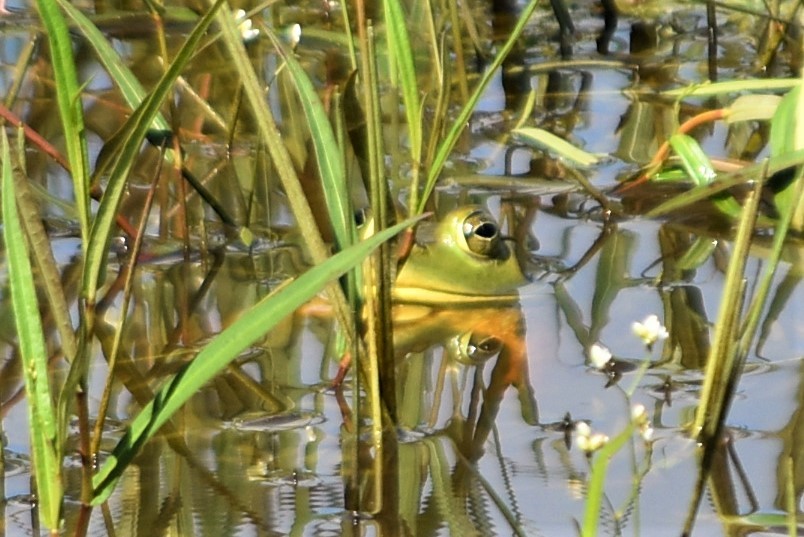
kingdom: Animalia
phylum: Chordata
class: Amphibia
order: Anura
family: Ranidae
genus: Lithobates
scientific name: Lithobates catesbeianus
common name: American bullfrog
